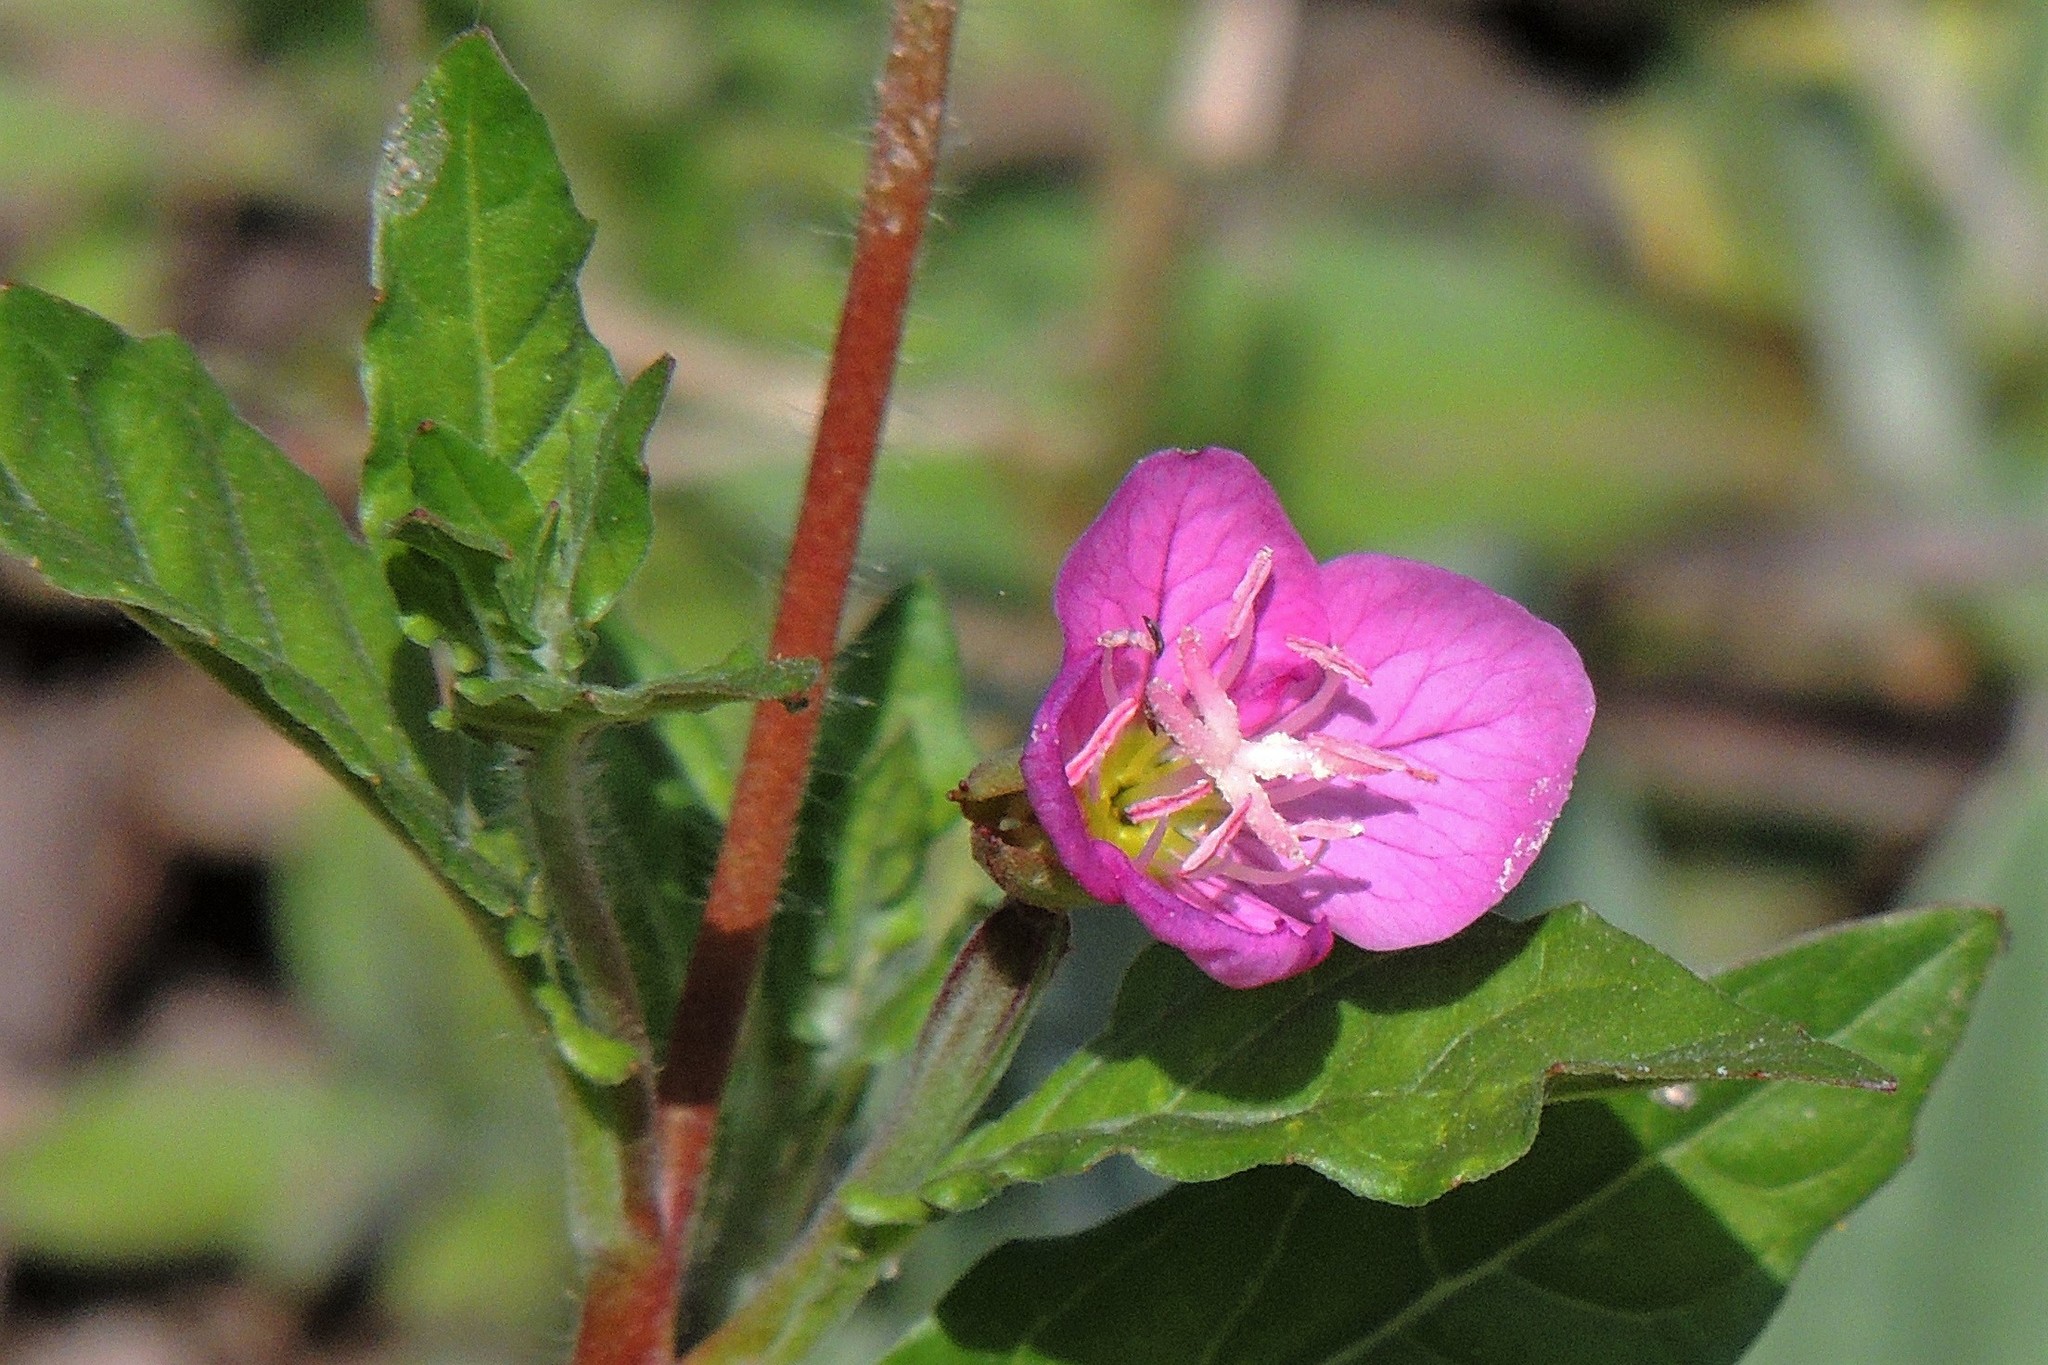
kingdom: Plantae
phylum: Tracheophyta
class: Magnoliopsida
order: Myrtales
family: Onagraceae
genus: Oenothera
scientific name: Oenothera rosea
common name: Rosy evening-primrose
